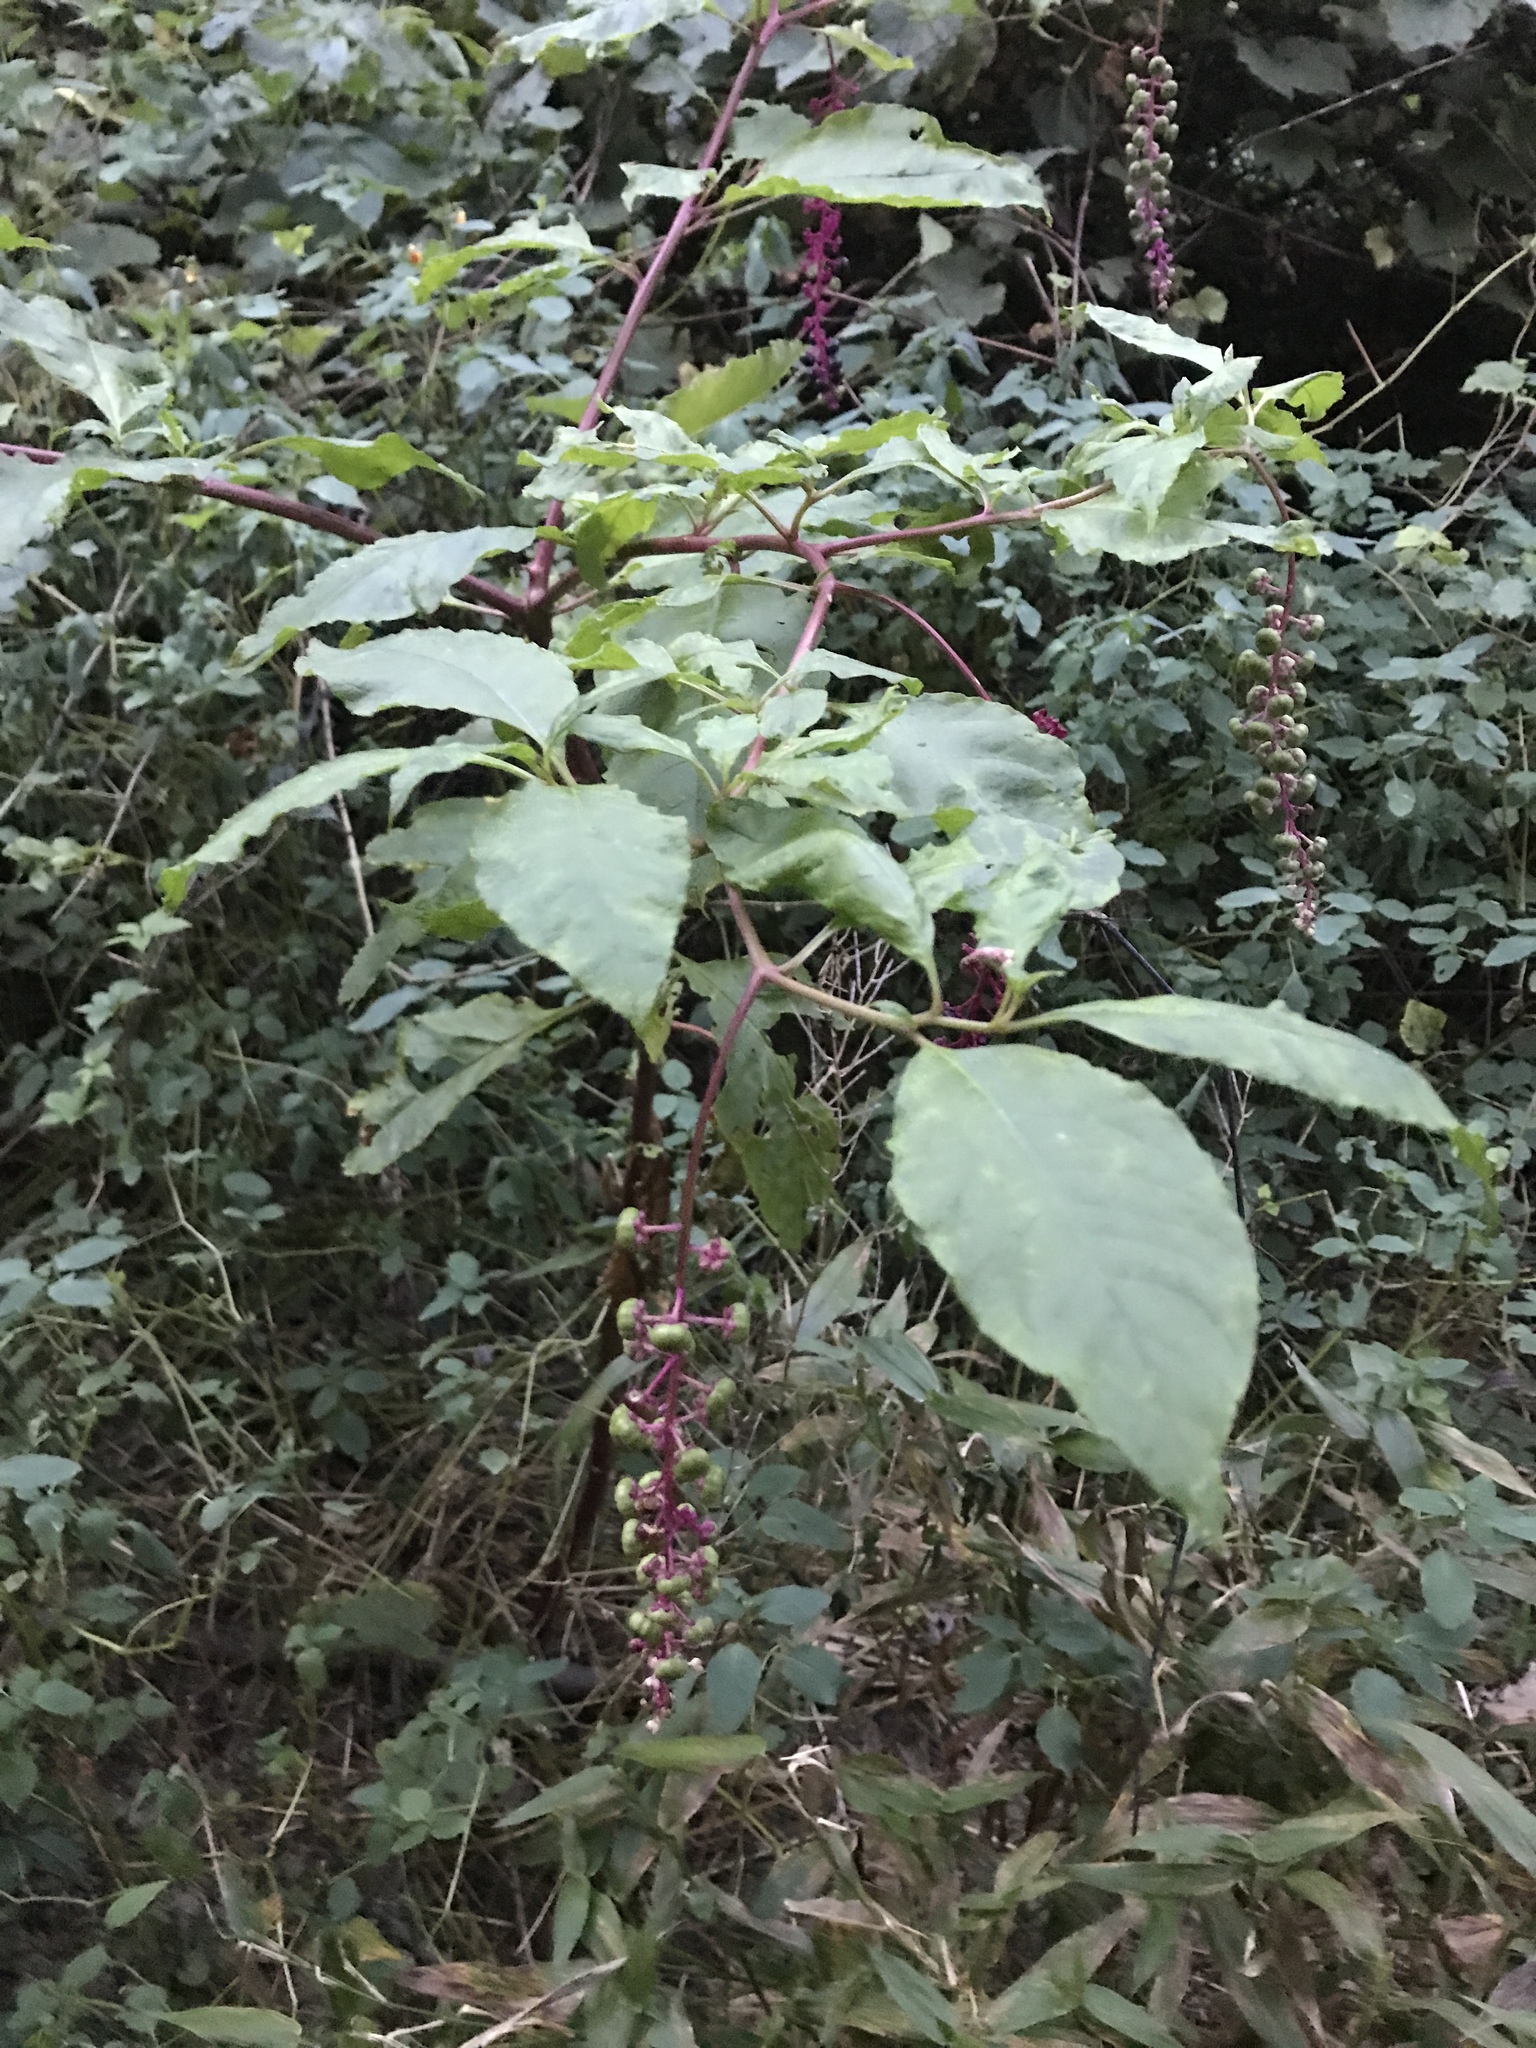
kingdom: Plantae
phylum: Tracheophyta
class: Magnoliopsida
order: Caryophyllales
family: Phytolaccaceae
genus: Phytolacca
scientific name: Phytolacca americana
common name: American pokeweed
